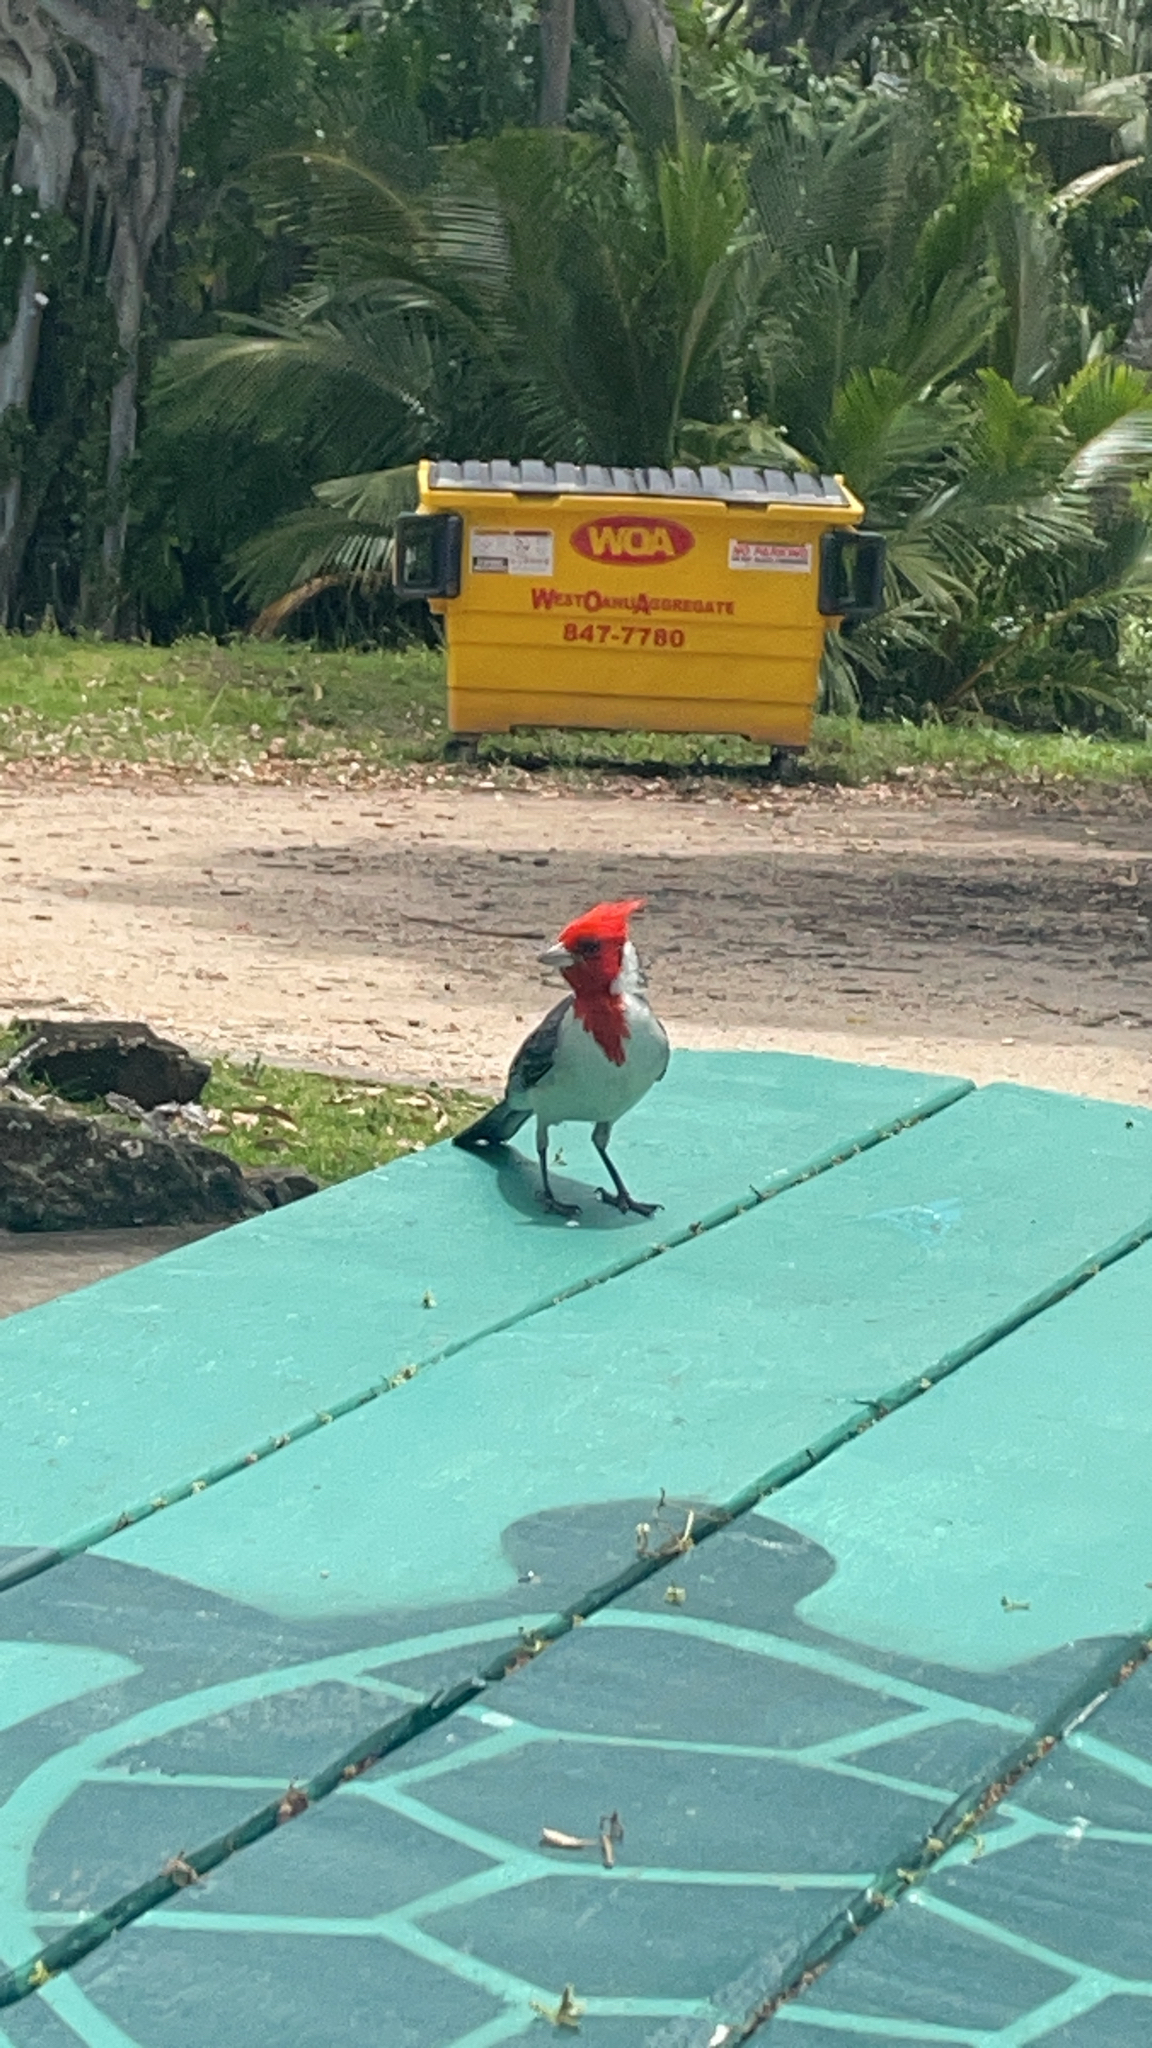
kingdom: Animalia
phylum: Chordata
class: Aves
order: Passeriformes
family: Thraupidae
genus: Paroaria
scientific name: Paroaria coronata
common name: Red-crested cardinal
